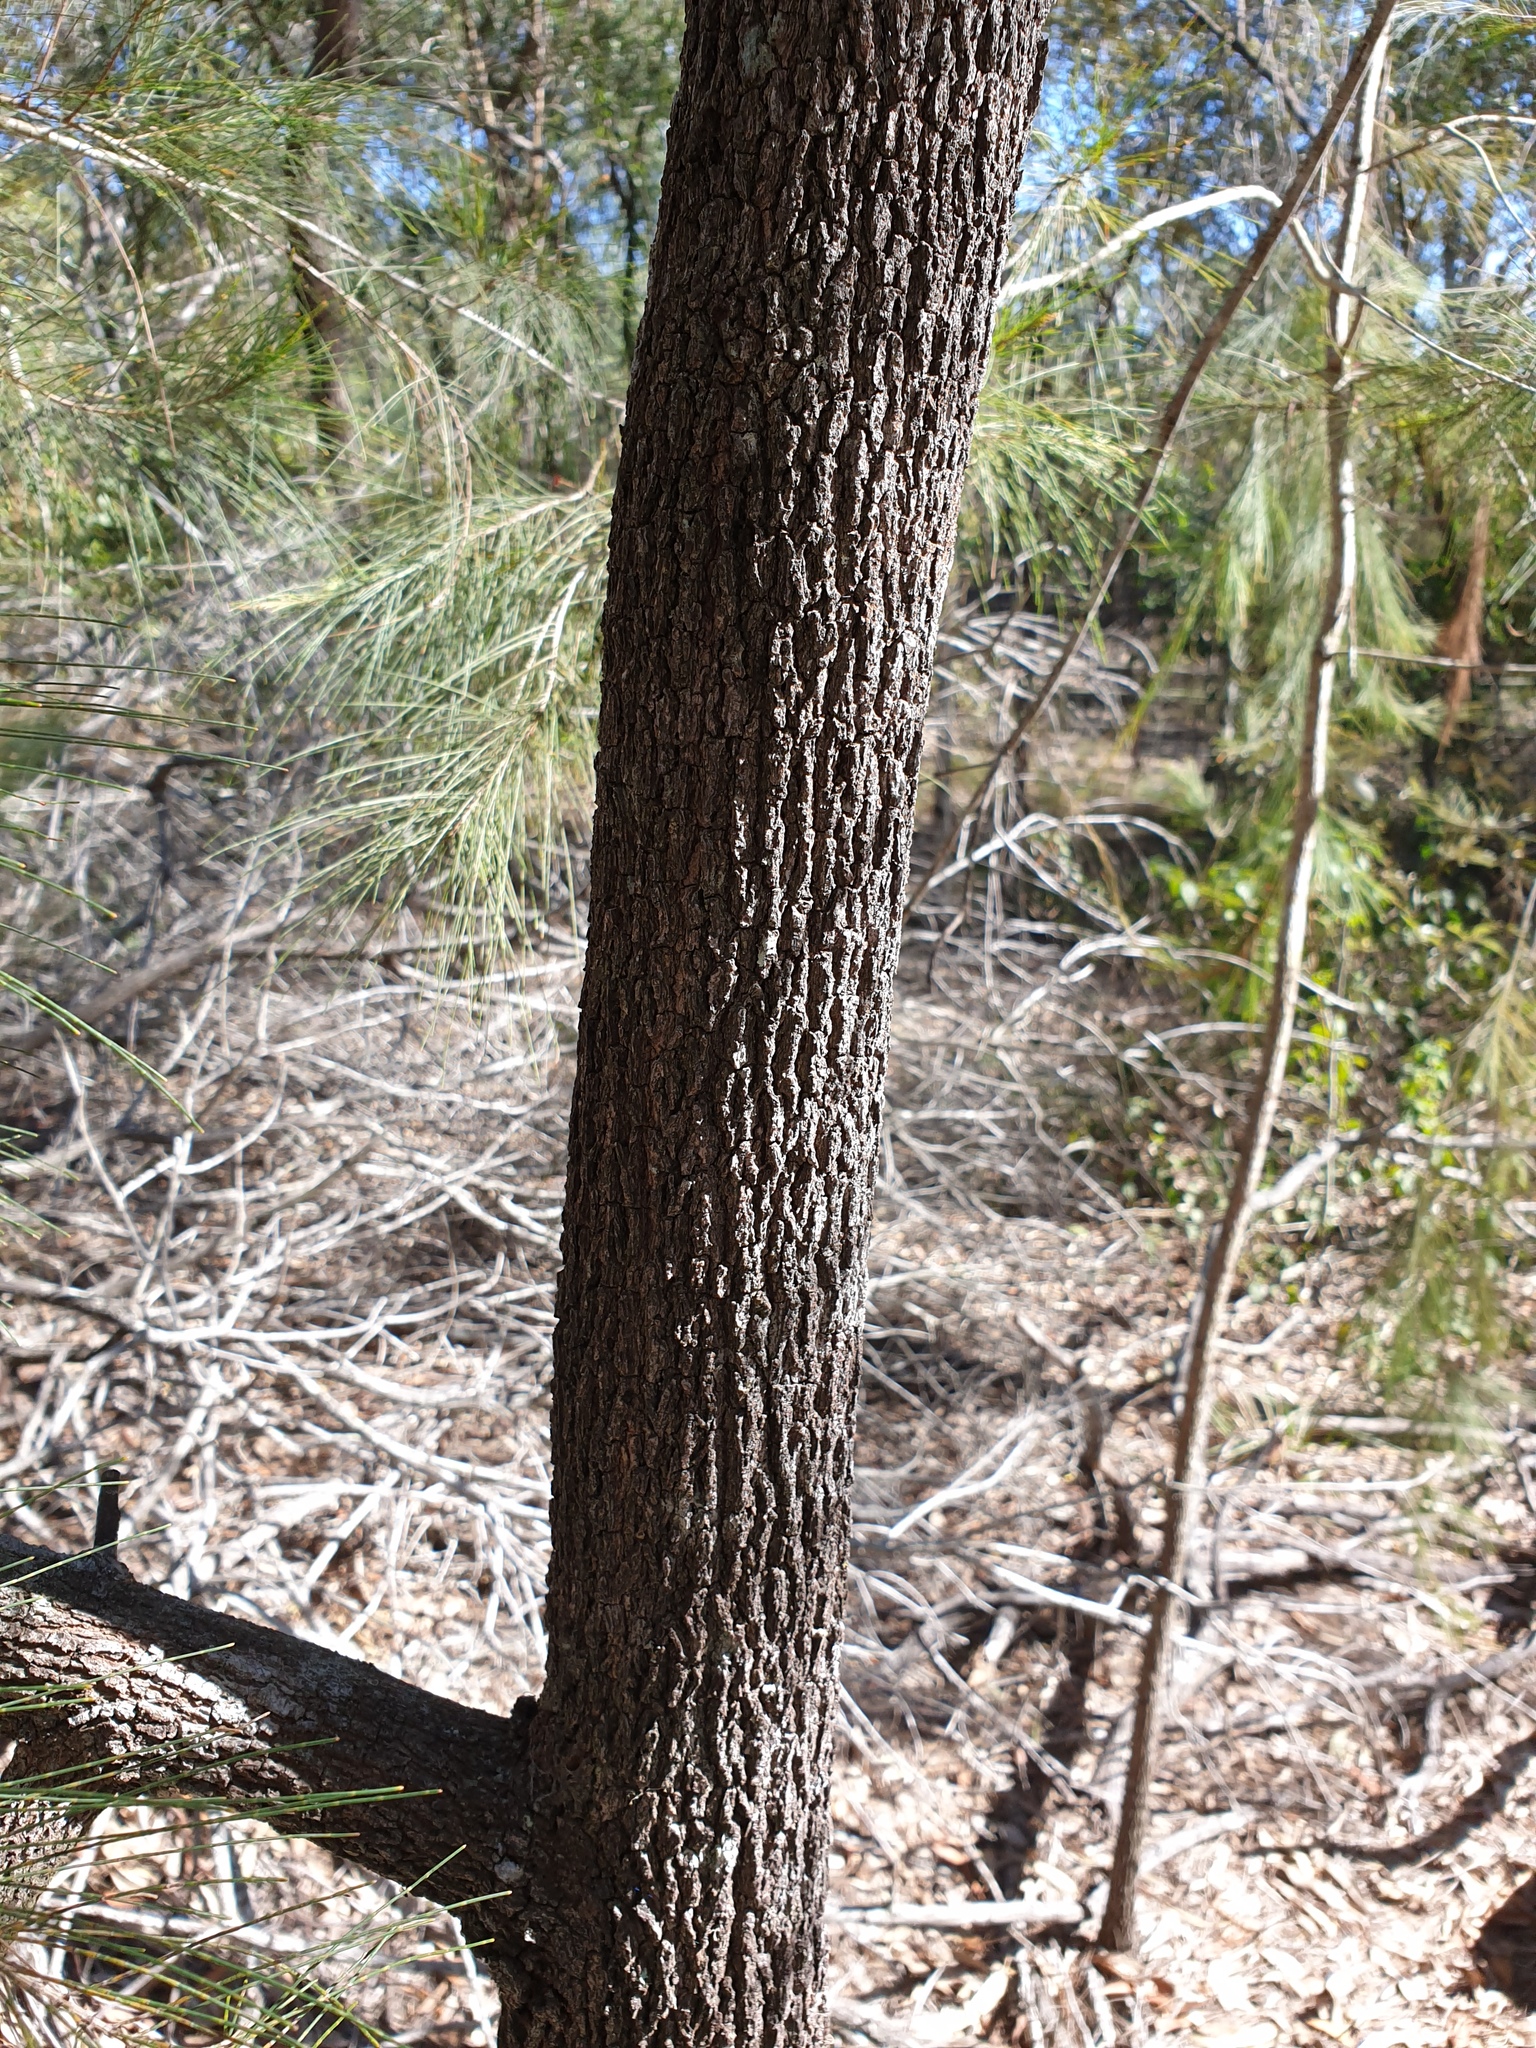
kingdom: Plantae
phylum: Tracheophyta
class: Magnoliopsida
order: Fagales
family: Casuarinaceae
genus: Allocasuarina
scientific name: Allocasuarina littoralis
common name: Black she-oak
